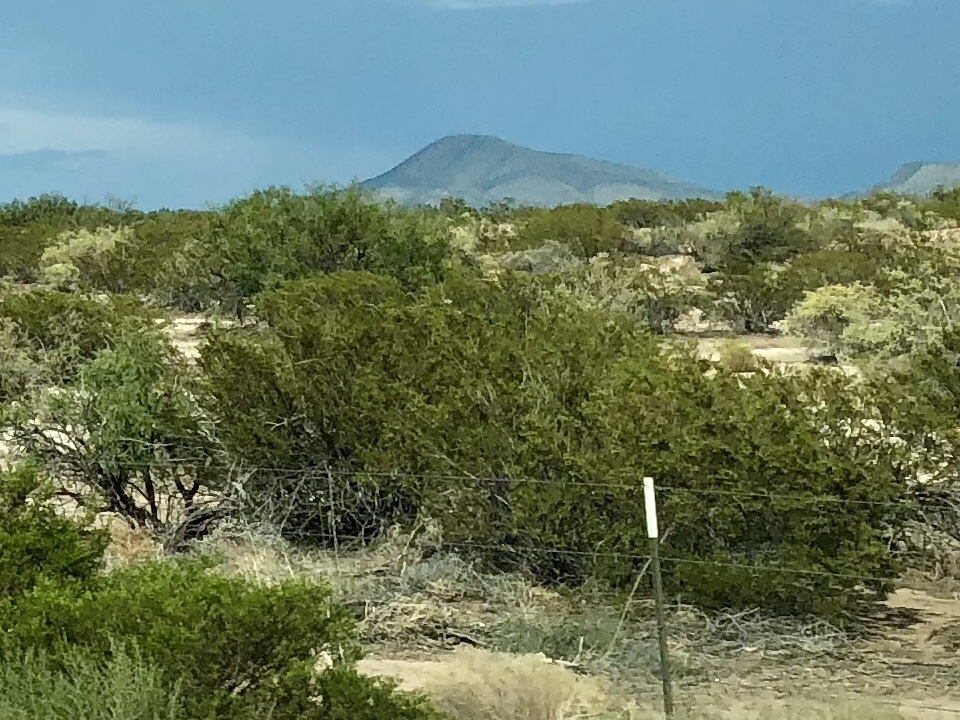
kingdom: Plantae
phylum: Tracheophyta
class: Magnoliopsida
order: Zygophyllales
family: Zygophyllaceae
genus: Larrea
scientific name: Larrea tridentata
